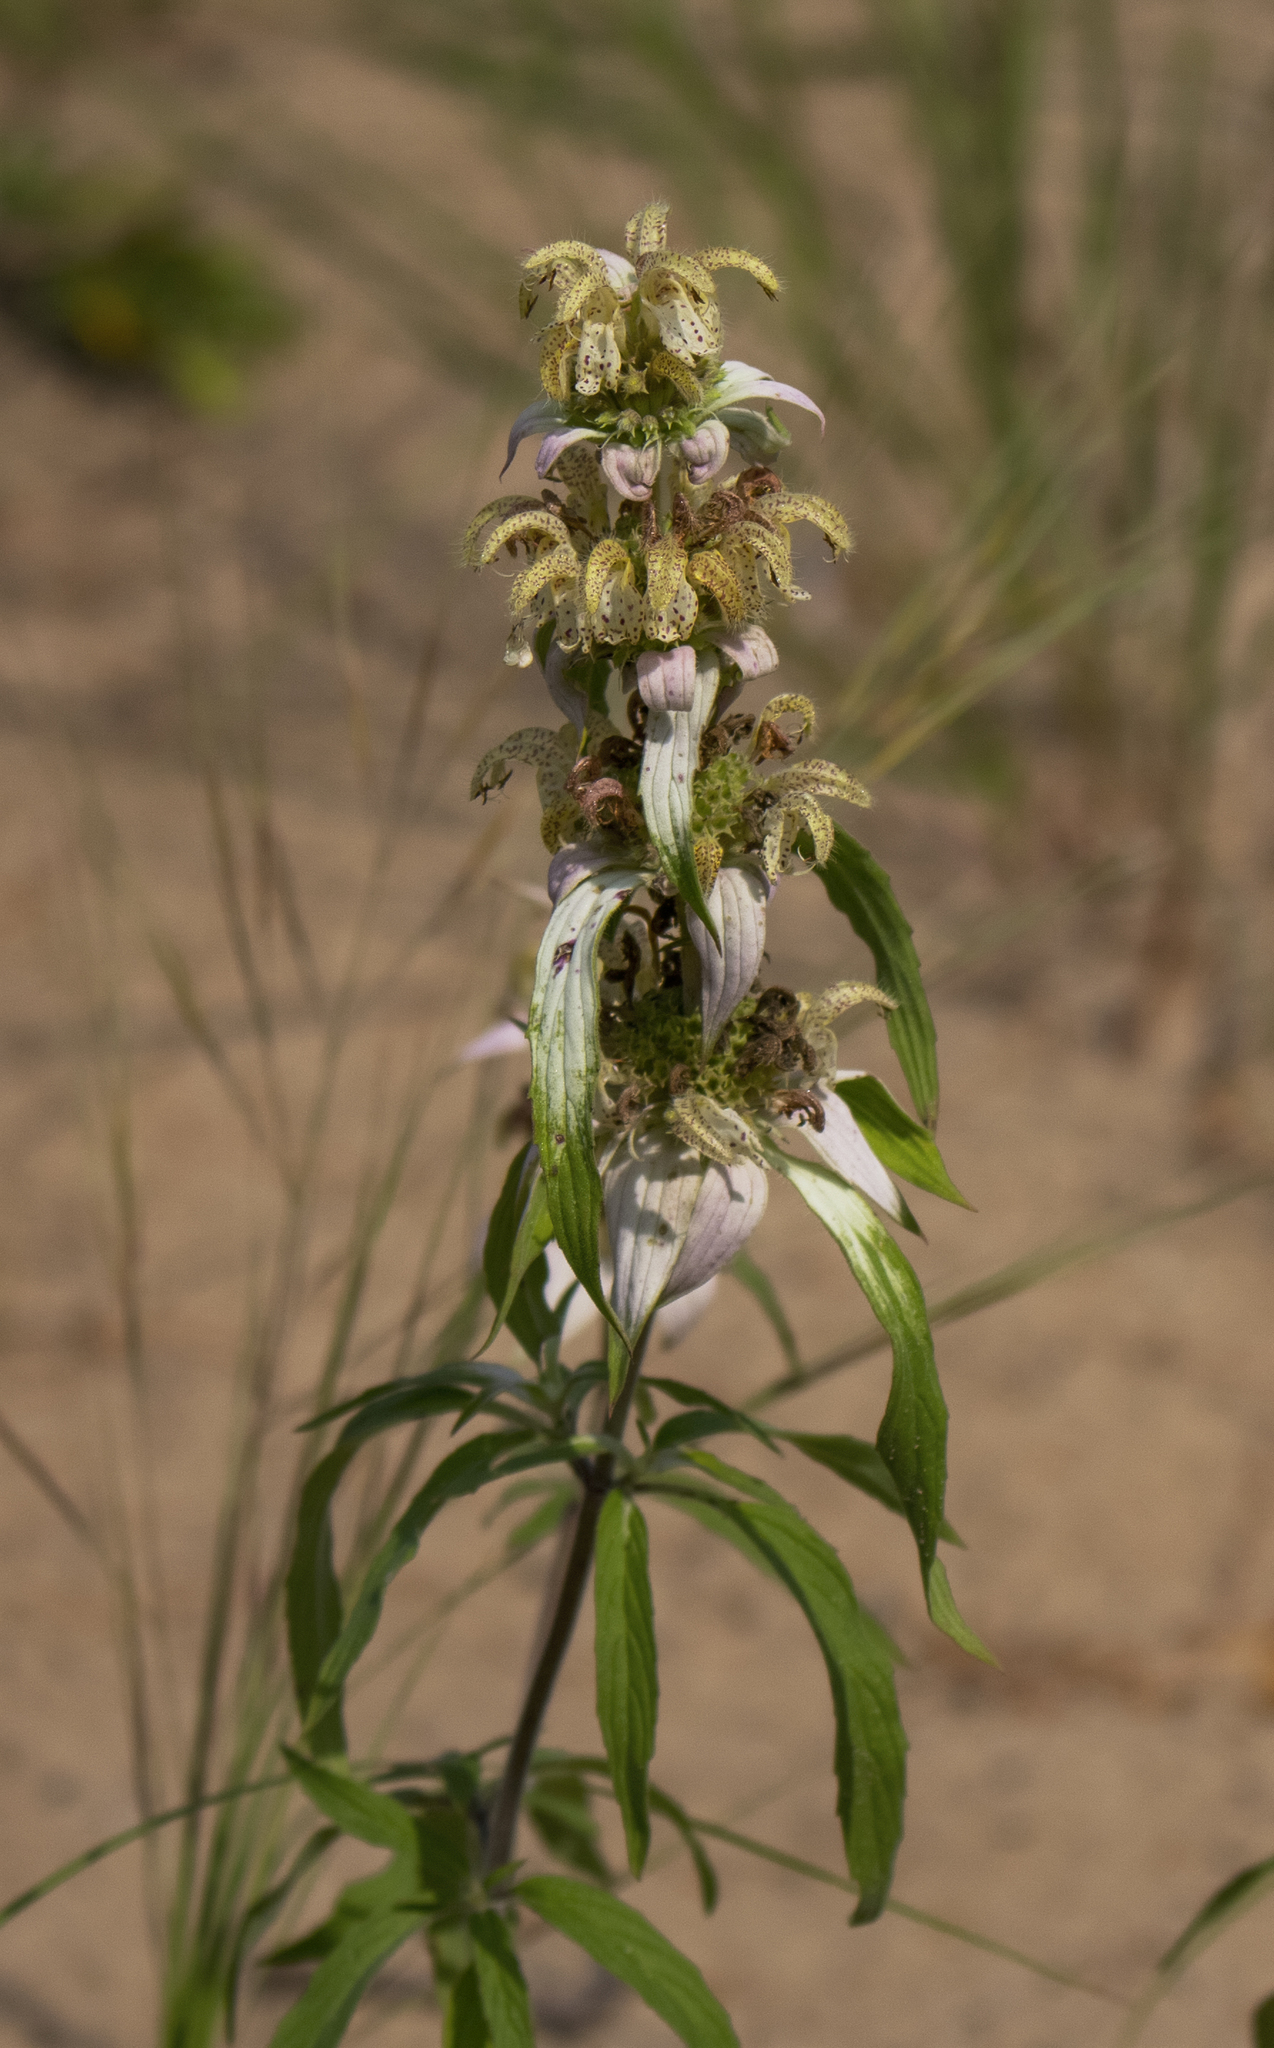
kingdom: Plantae
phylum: Tracheophyta
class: Magnoliopsida
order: Lamiales
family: Lamiaceae
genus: Monarda
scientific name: Monarda punctata
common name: Dotted monarda
